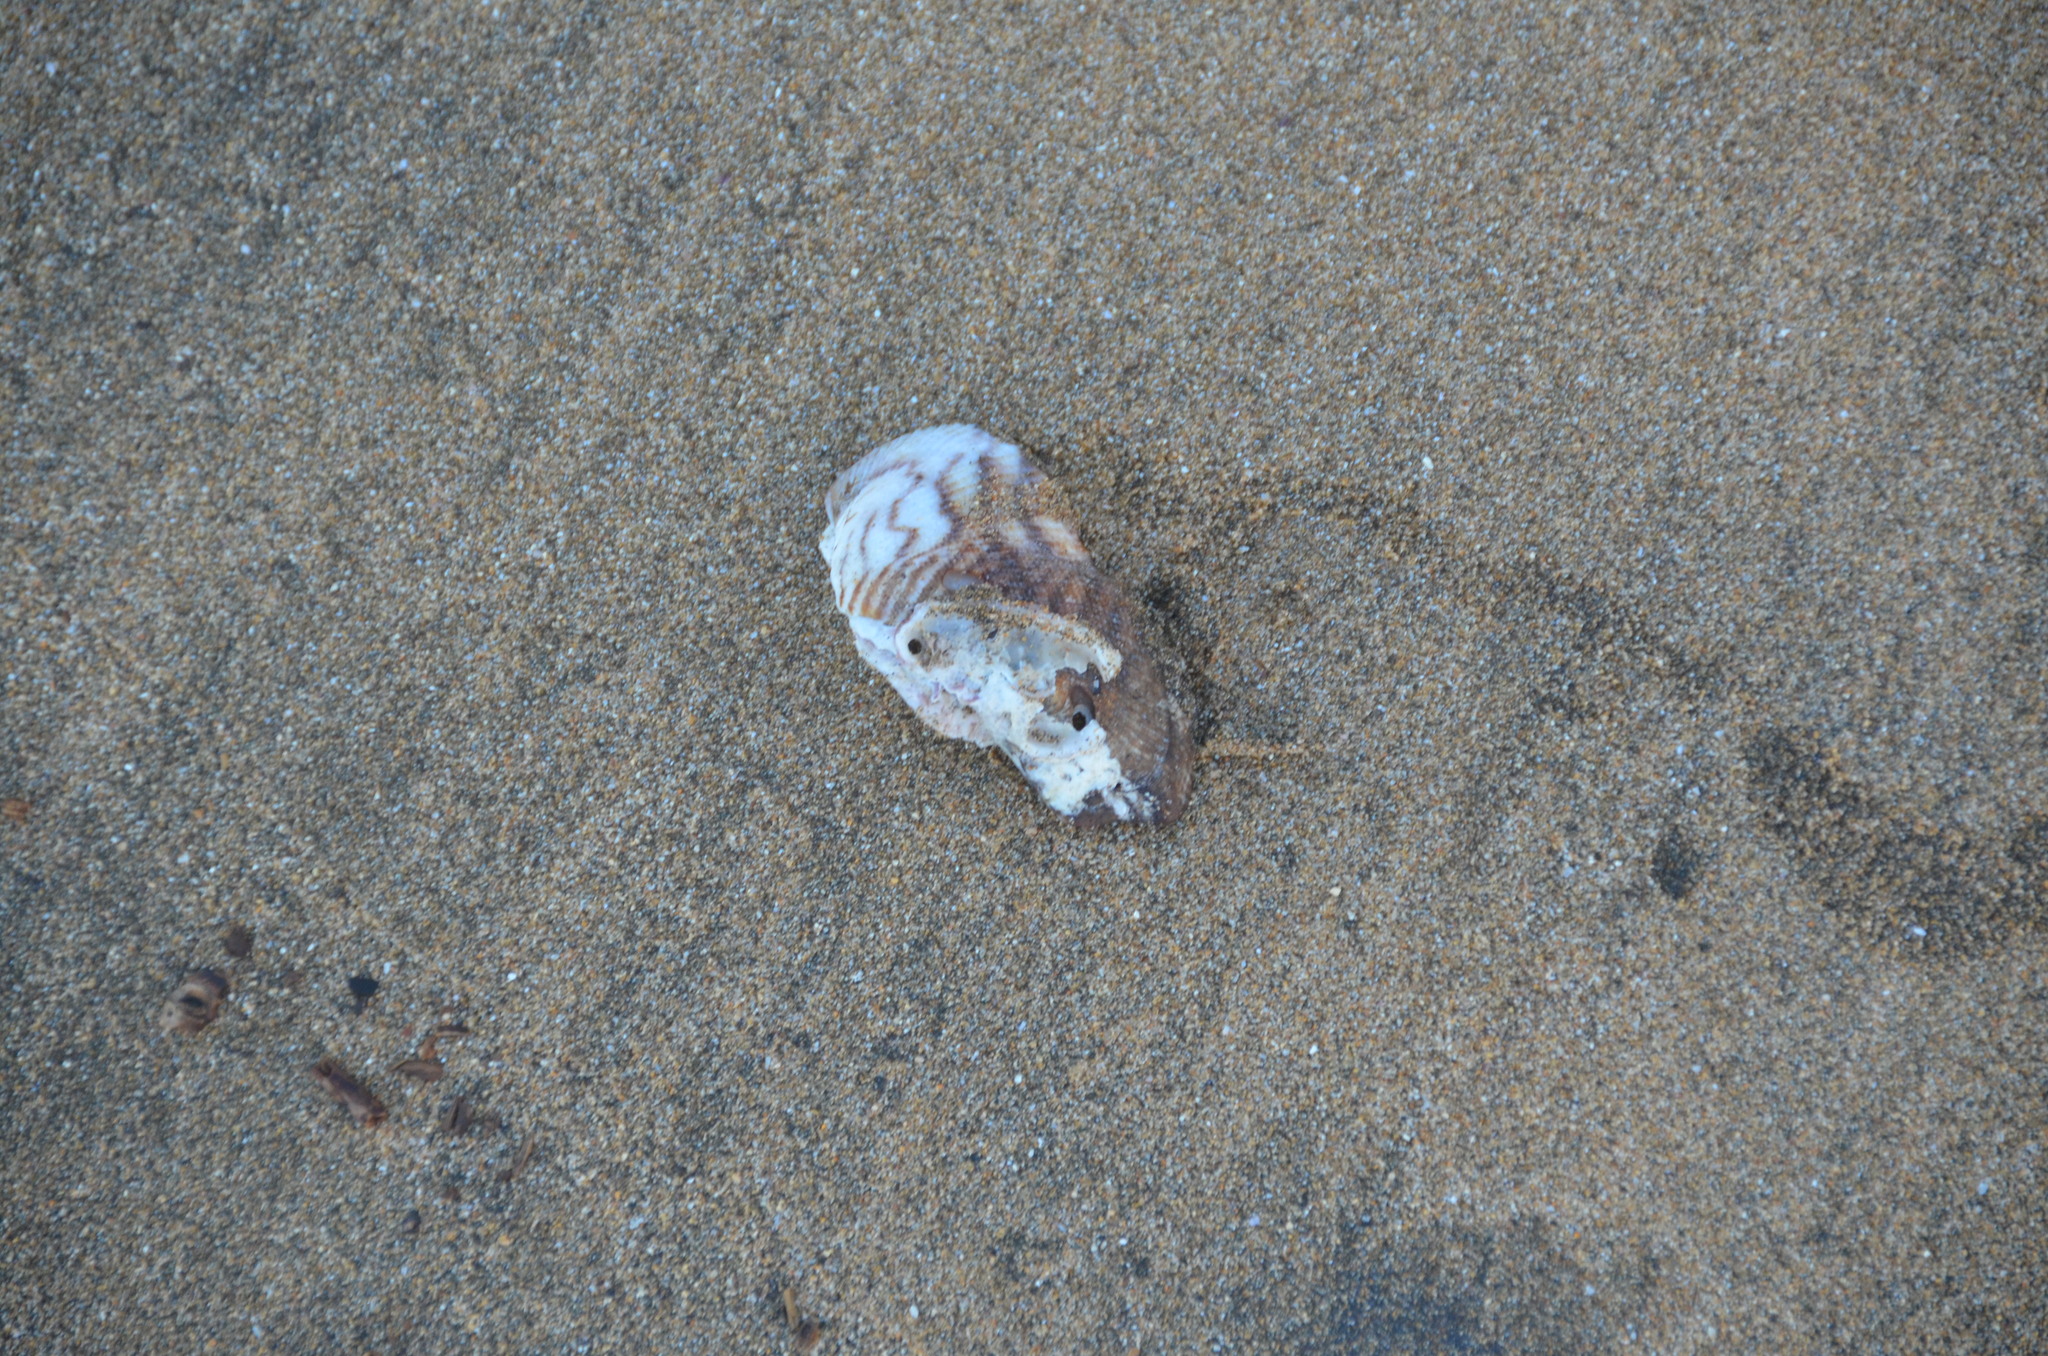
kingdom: Animalia
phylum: Mollusca
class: Bivalvia
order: Arcida
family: Arcidae
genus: Lamarcka
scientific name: Lamarcka ventricosa
